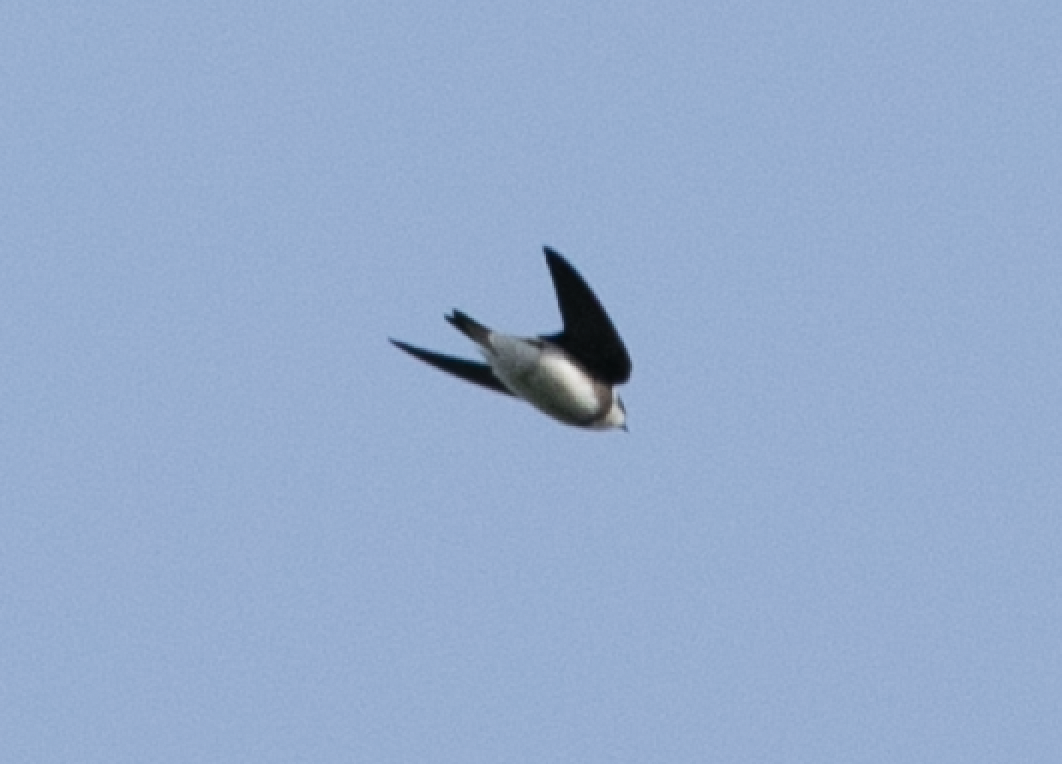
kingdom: Animalia
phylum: Chordata
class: Aves
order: Passeriformes
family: Hirundinidae
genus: Riparia
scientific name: Riparia riparia
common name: Sand martin
